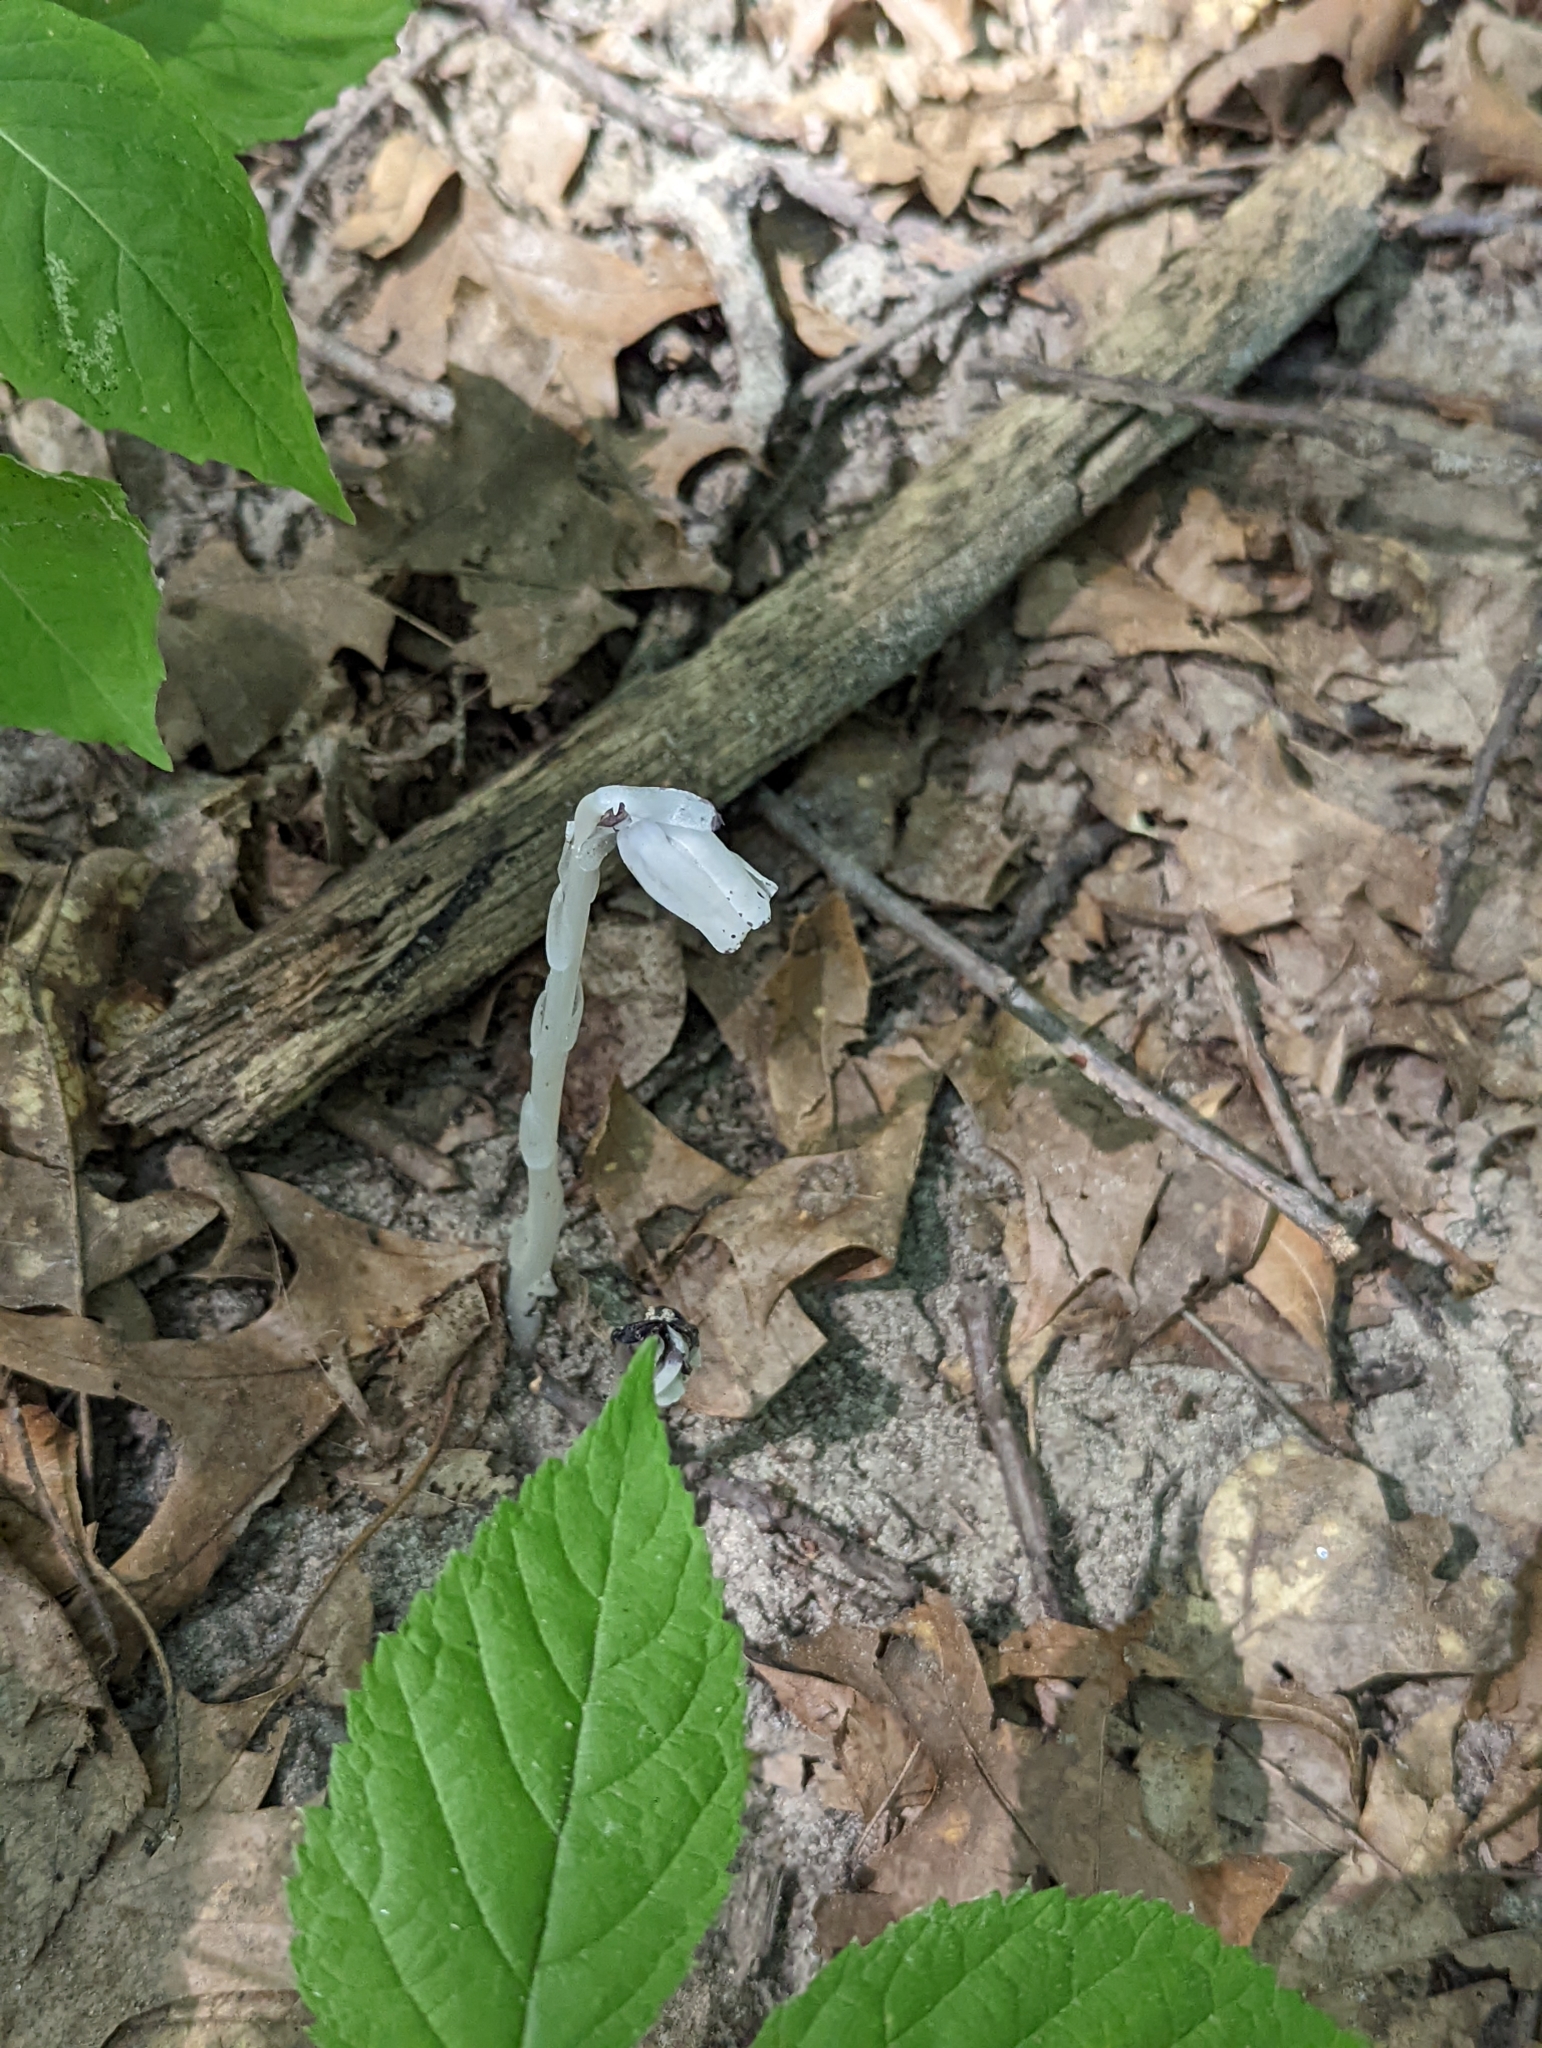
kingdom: Plantae
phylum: Tracheophyta
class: Magnoliopsida
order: Ericales
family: Ericaceae
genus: Monotropa
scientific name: Monotropa uniflora
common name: Convulsion root
